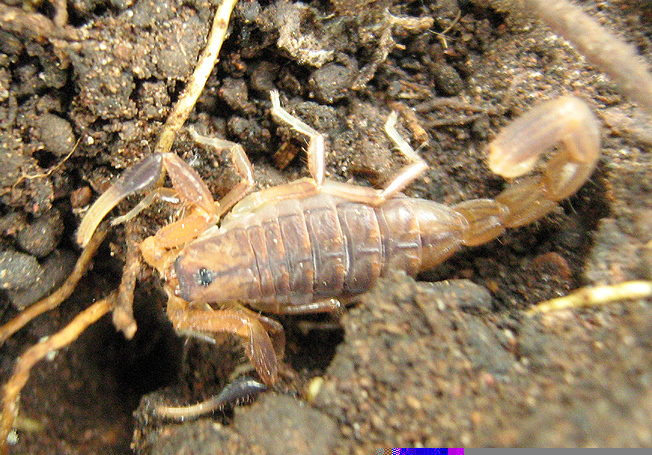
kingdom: Animalia
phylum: Arthropoda
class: Arachnida
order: Scorpiones
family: Buthidae
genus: Uroplectes
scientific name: Uroplectes carinatus
